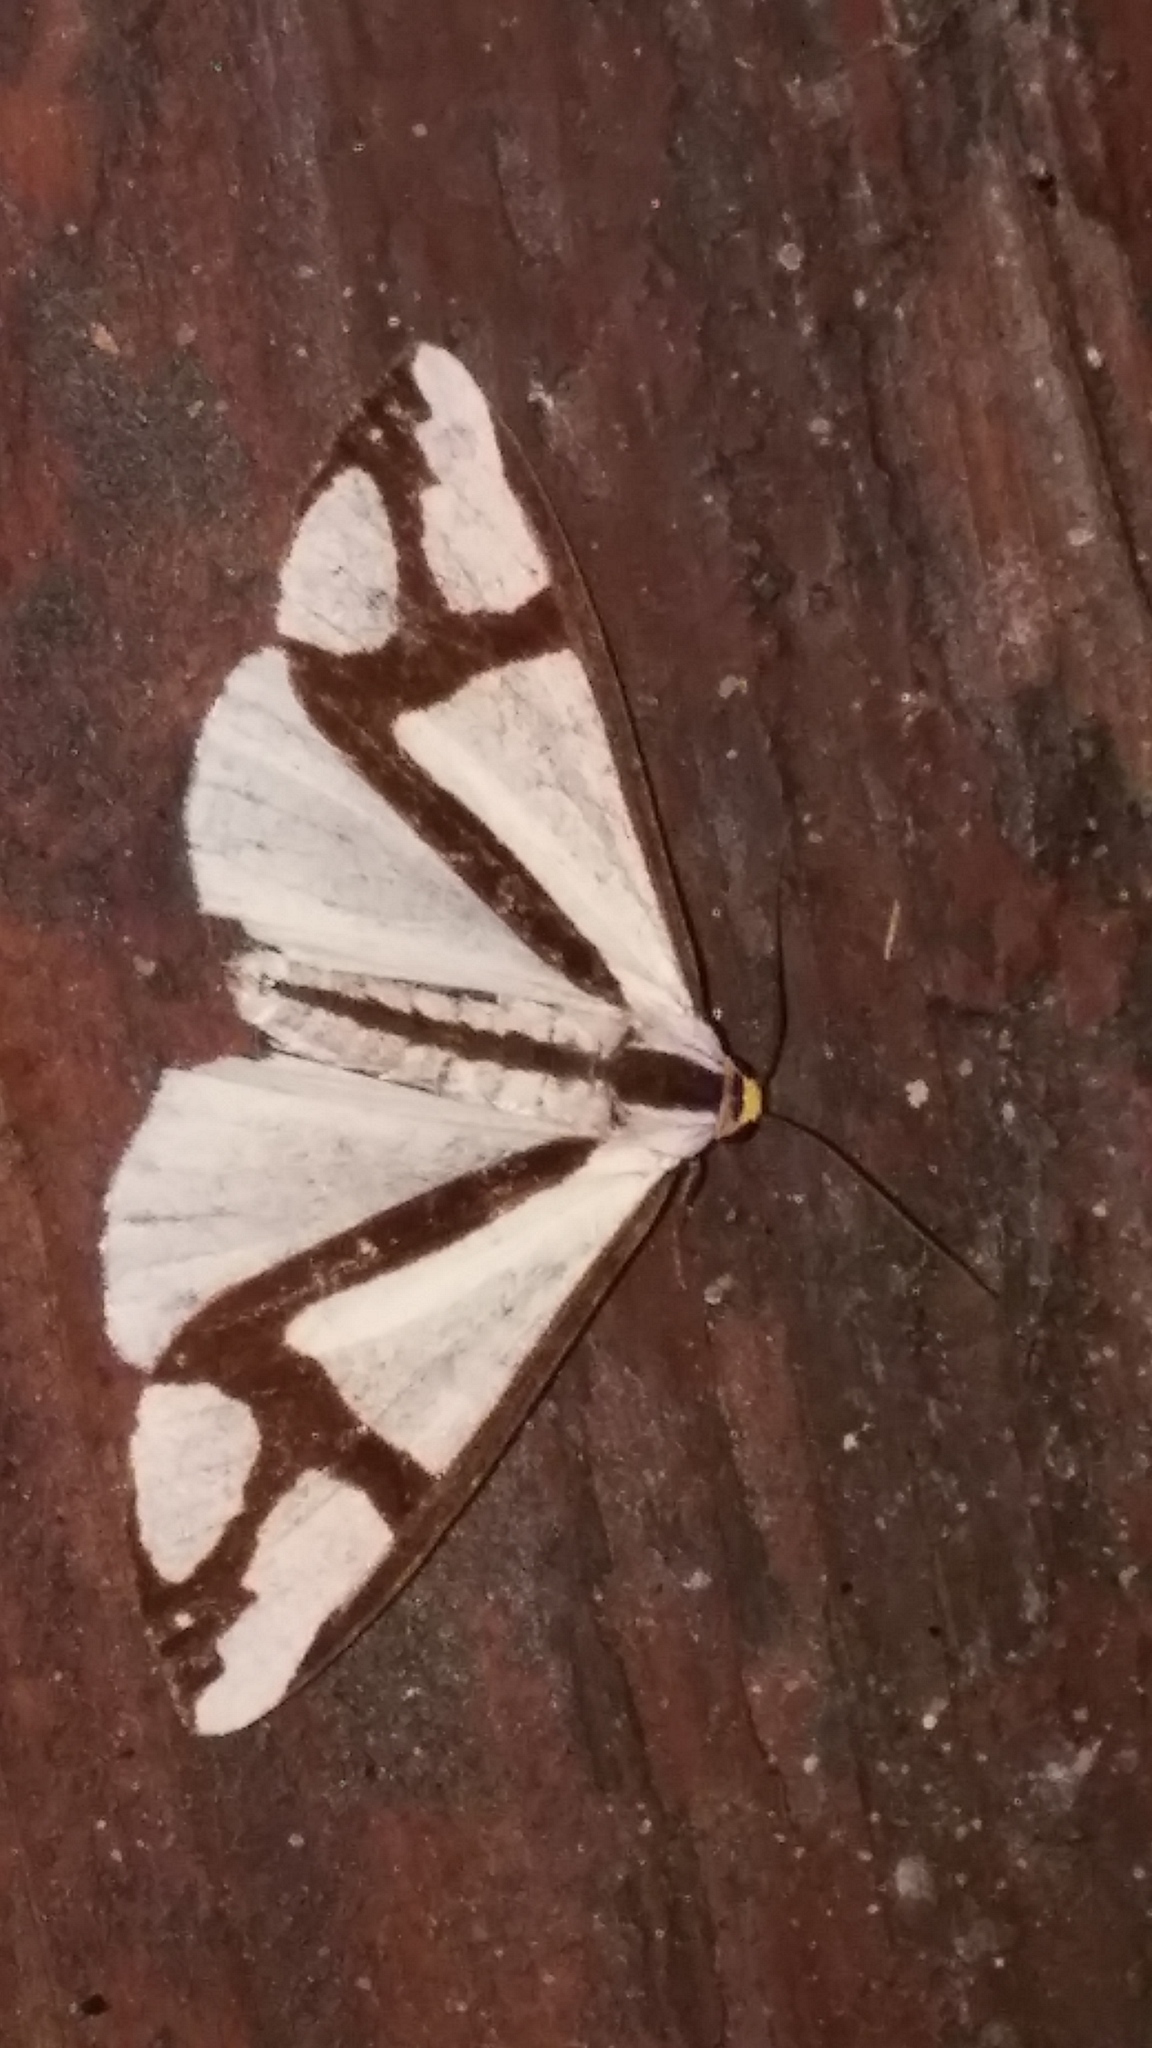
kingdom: Animalia
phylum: Arthropoda
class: Insecta
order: Lepidoptera
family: Erebidae
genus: Haploa
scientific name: Haploa contigua
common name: Neighbor moth
